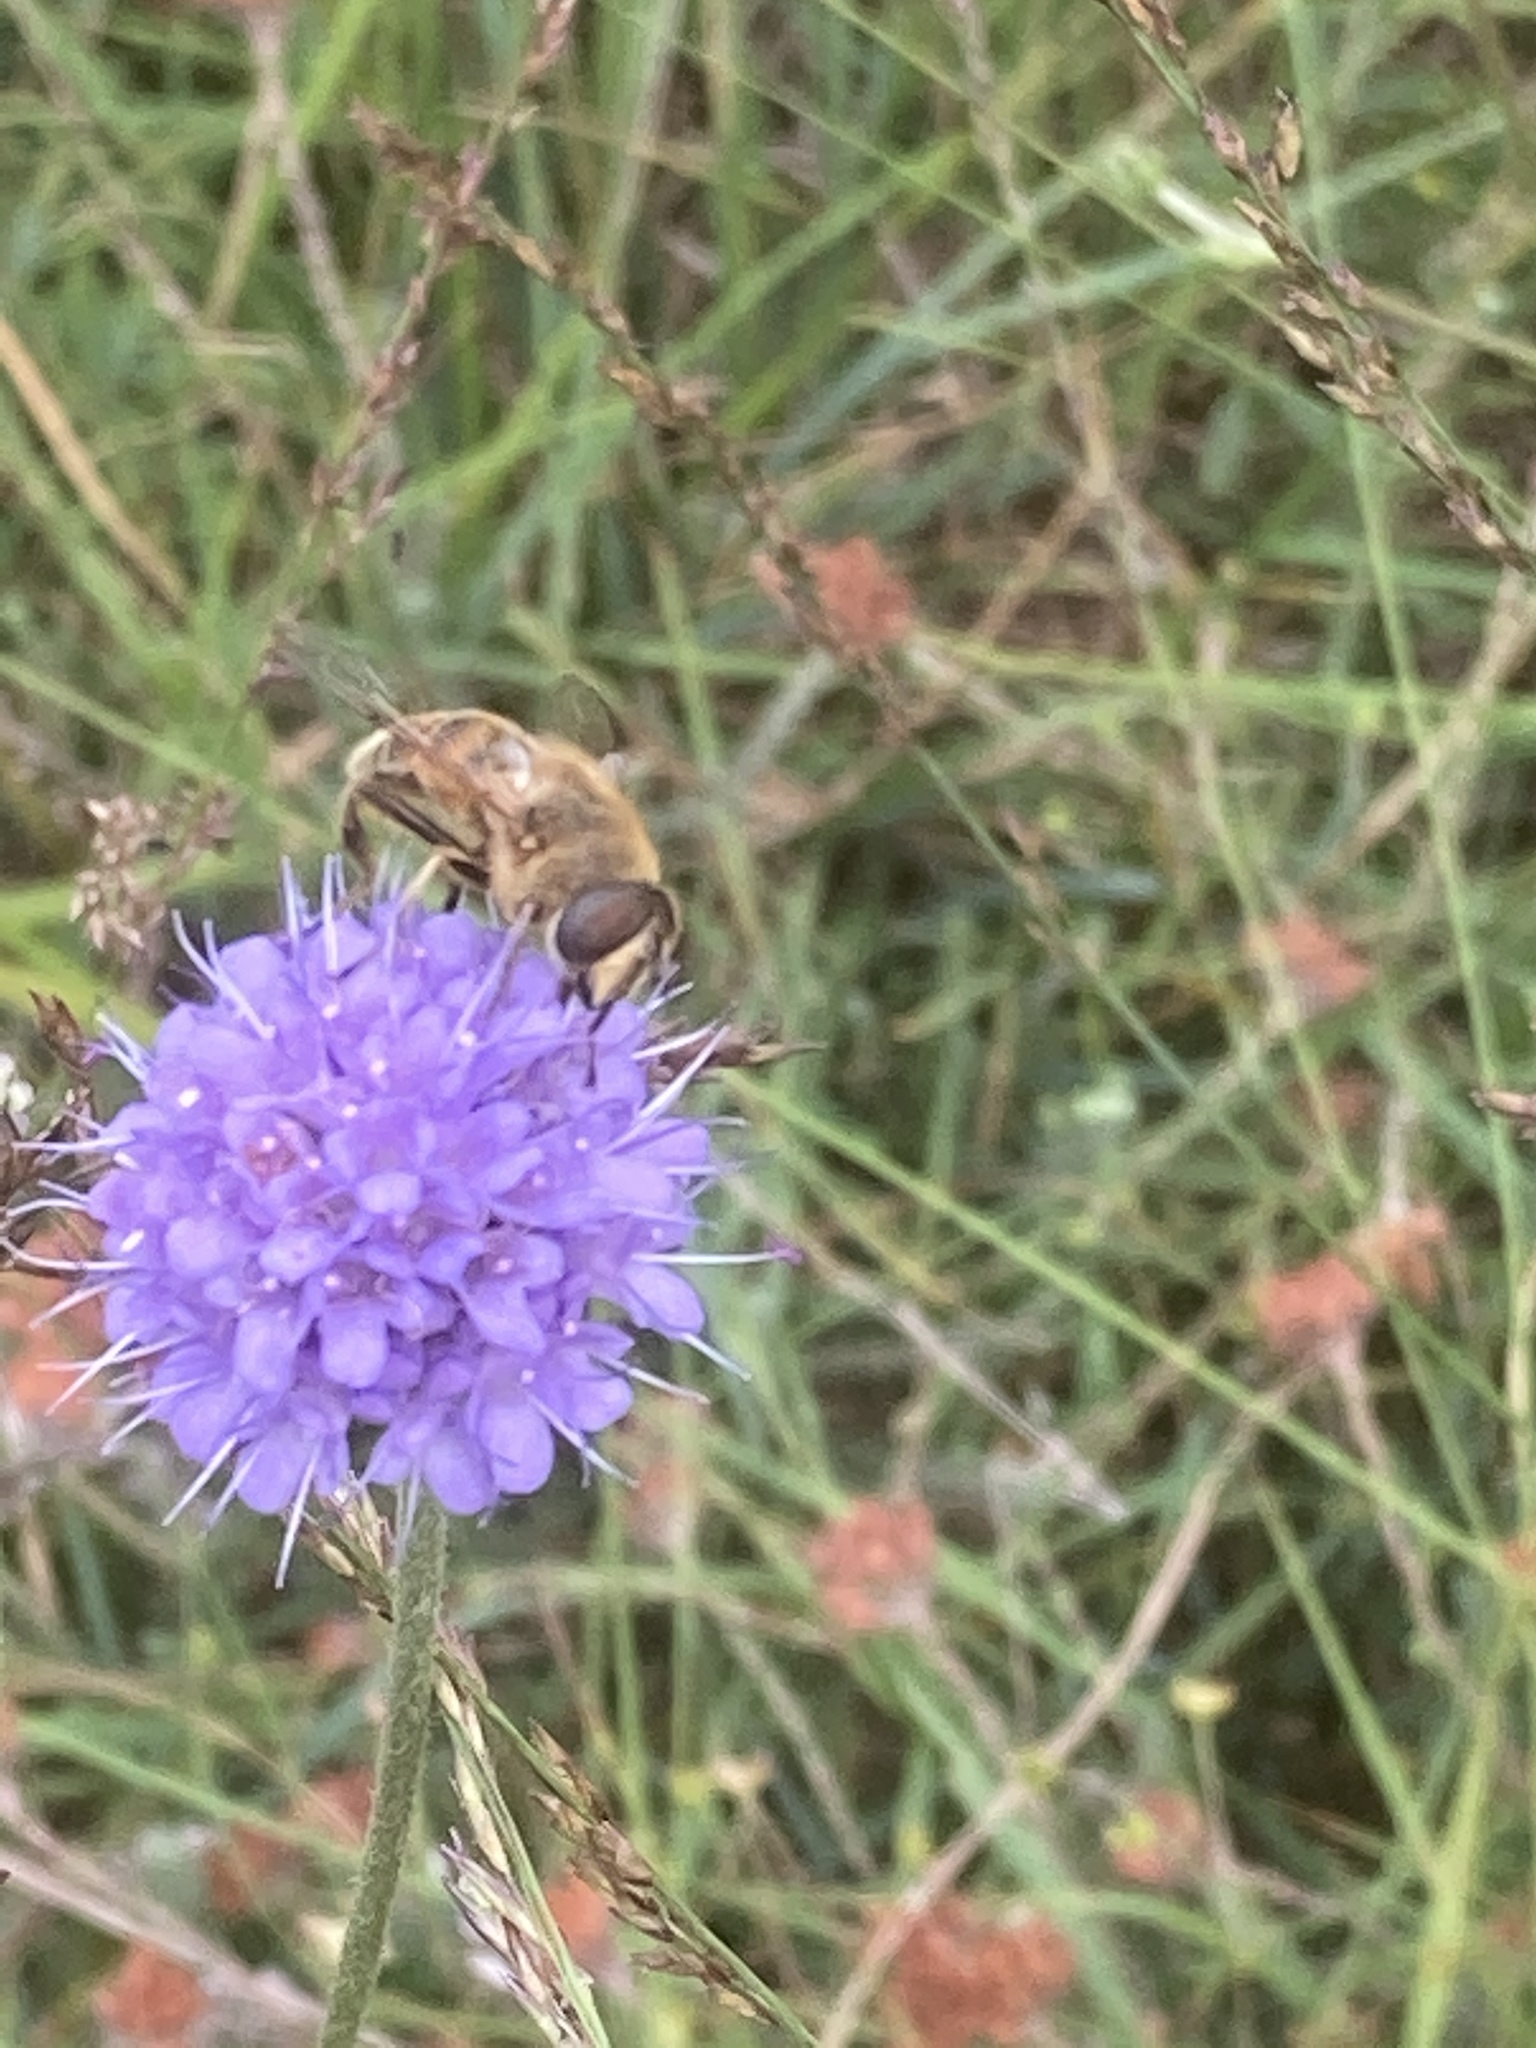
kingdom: Plantae
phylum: Tracheophyta
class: Magnoliopsida
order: Dipsacales
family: Caprifoliaceae
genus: Succisa
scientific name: Succisa pratensis
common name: Devil's-bit
